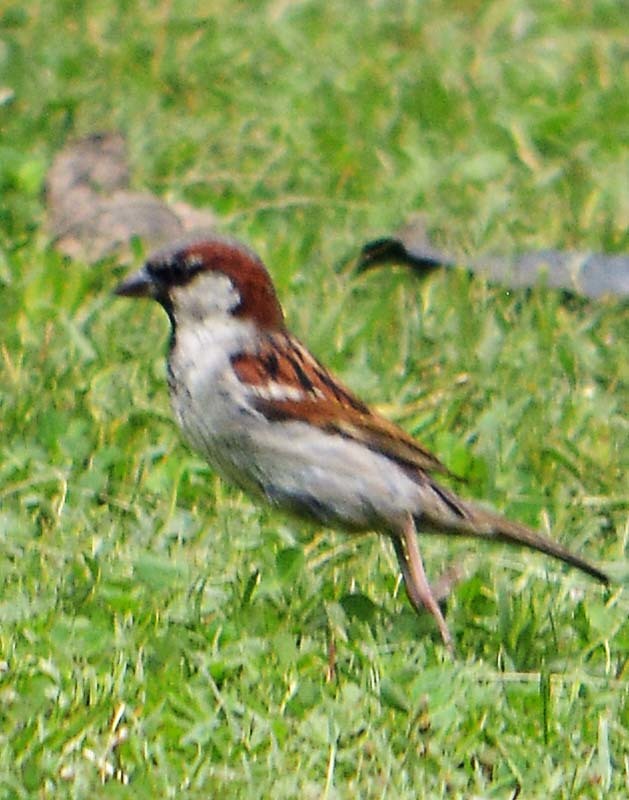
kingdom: Animalia
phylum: Chordata
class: Aves
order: Passeriformes
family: Passeridae
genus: Passer
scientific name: Passer domesticus
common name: House sparrow
